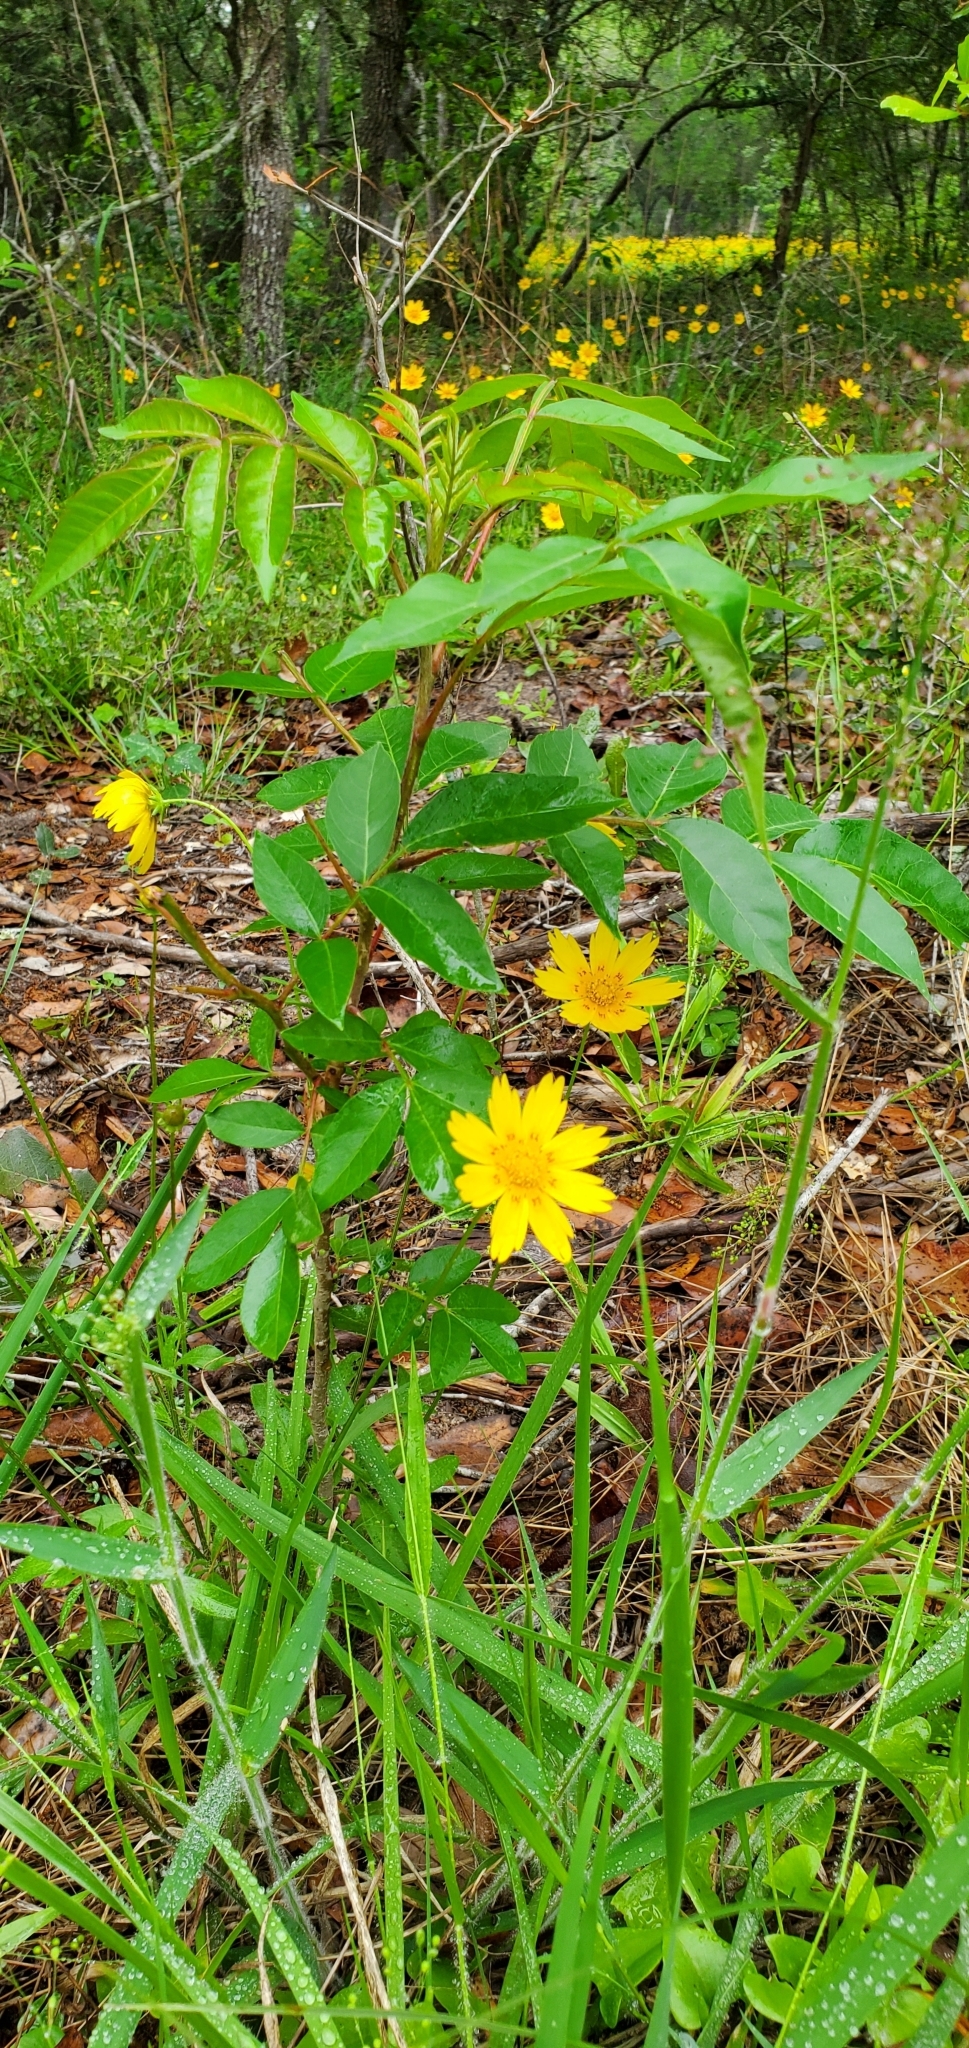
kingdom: Plantae
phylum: Tracheophyta
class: Magnoliopsida
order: Sapindales
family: Anacardiaceae
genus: Rhus
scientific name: Rhus copallina
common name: Shining sumac
